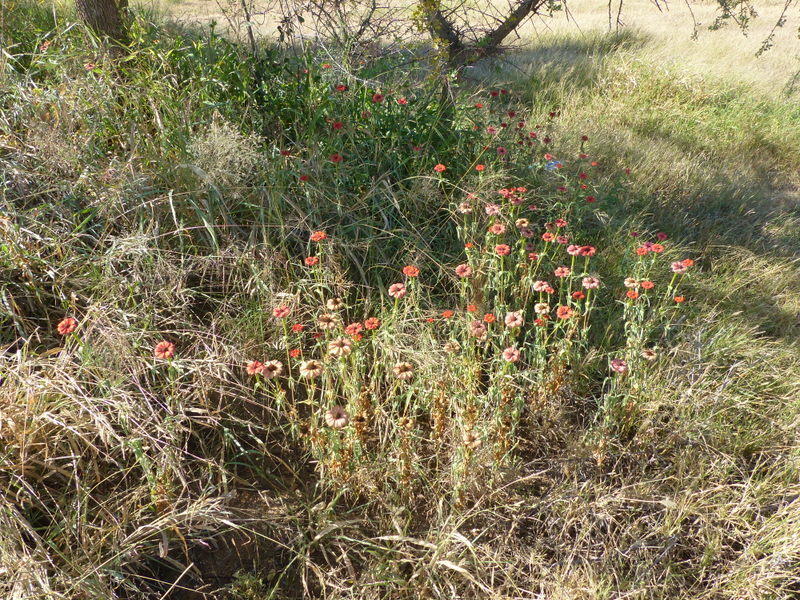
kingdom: Plantae
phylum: Tracheophyta
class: Magnoliopsida
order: Asterales
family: Asteraceae
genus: Zinnia
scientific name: Zinnia peruviana
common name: Peruvian zinnia
